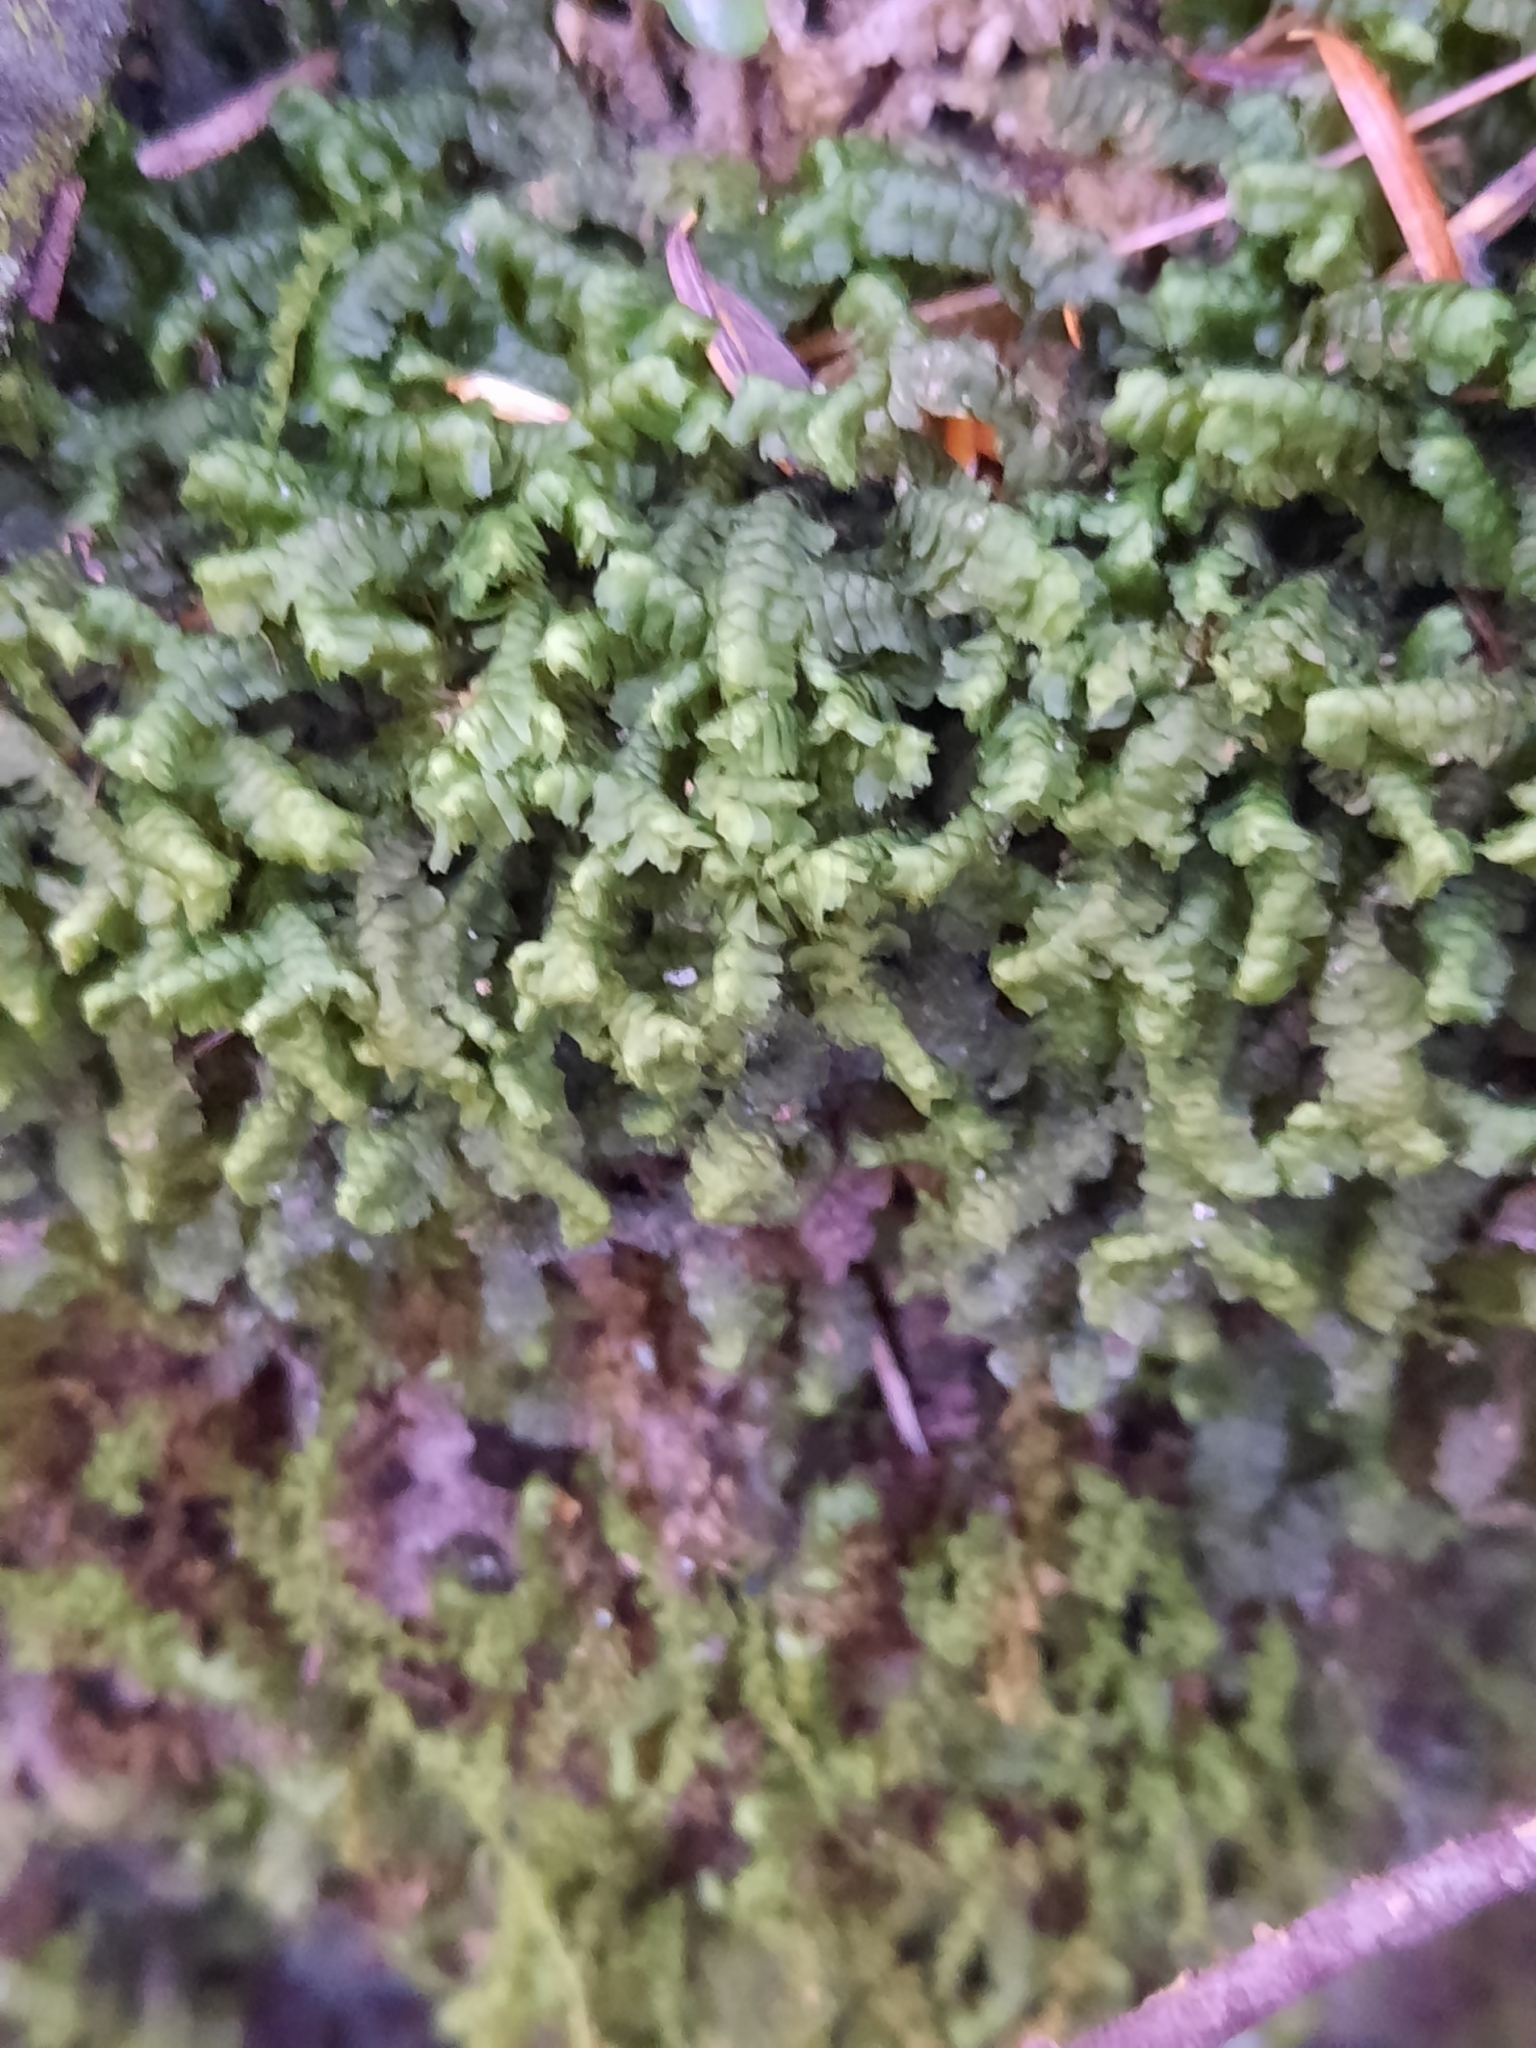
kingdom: Plantae
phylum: Marchantiophyta
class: Jungermanniopsida
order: Jungermanniales
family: Lepidoziaceae
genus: Bazzania
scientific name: Bazzania trilobata
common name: Three-lobed whipwort
